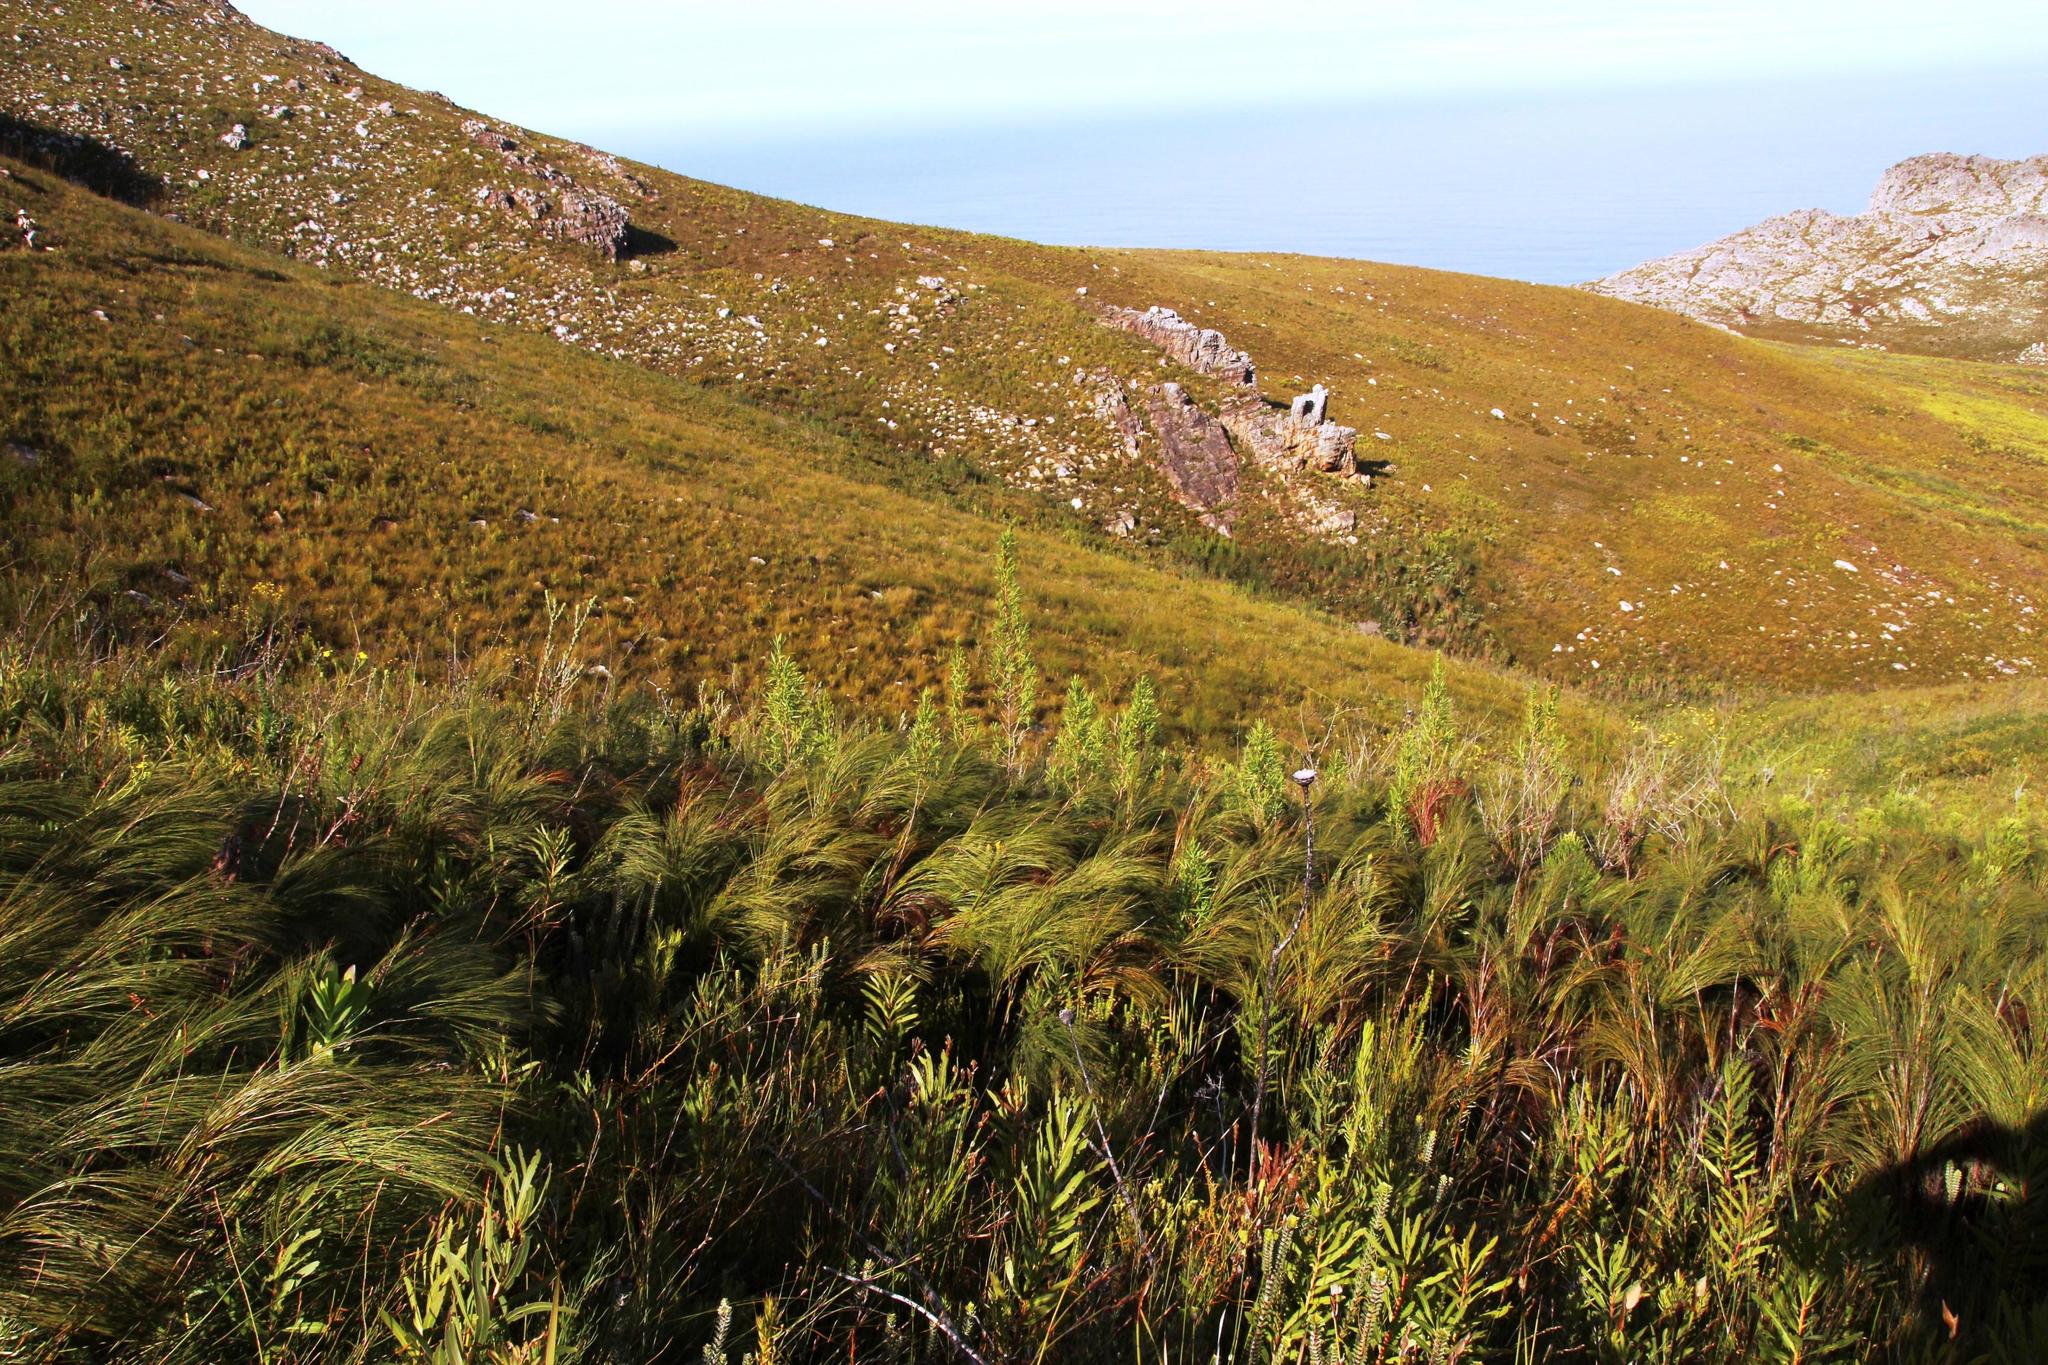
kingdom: Plantae
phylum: Tracheophyta
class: Magnoliopsida
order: Rosales
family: Rosaceae
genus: Cliffortia
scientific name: Cliffortia heterophylla
